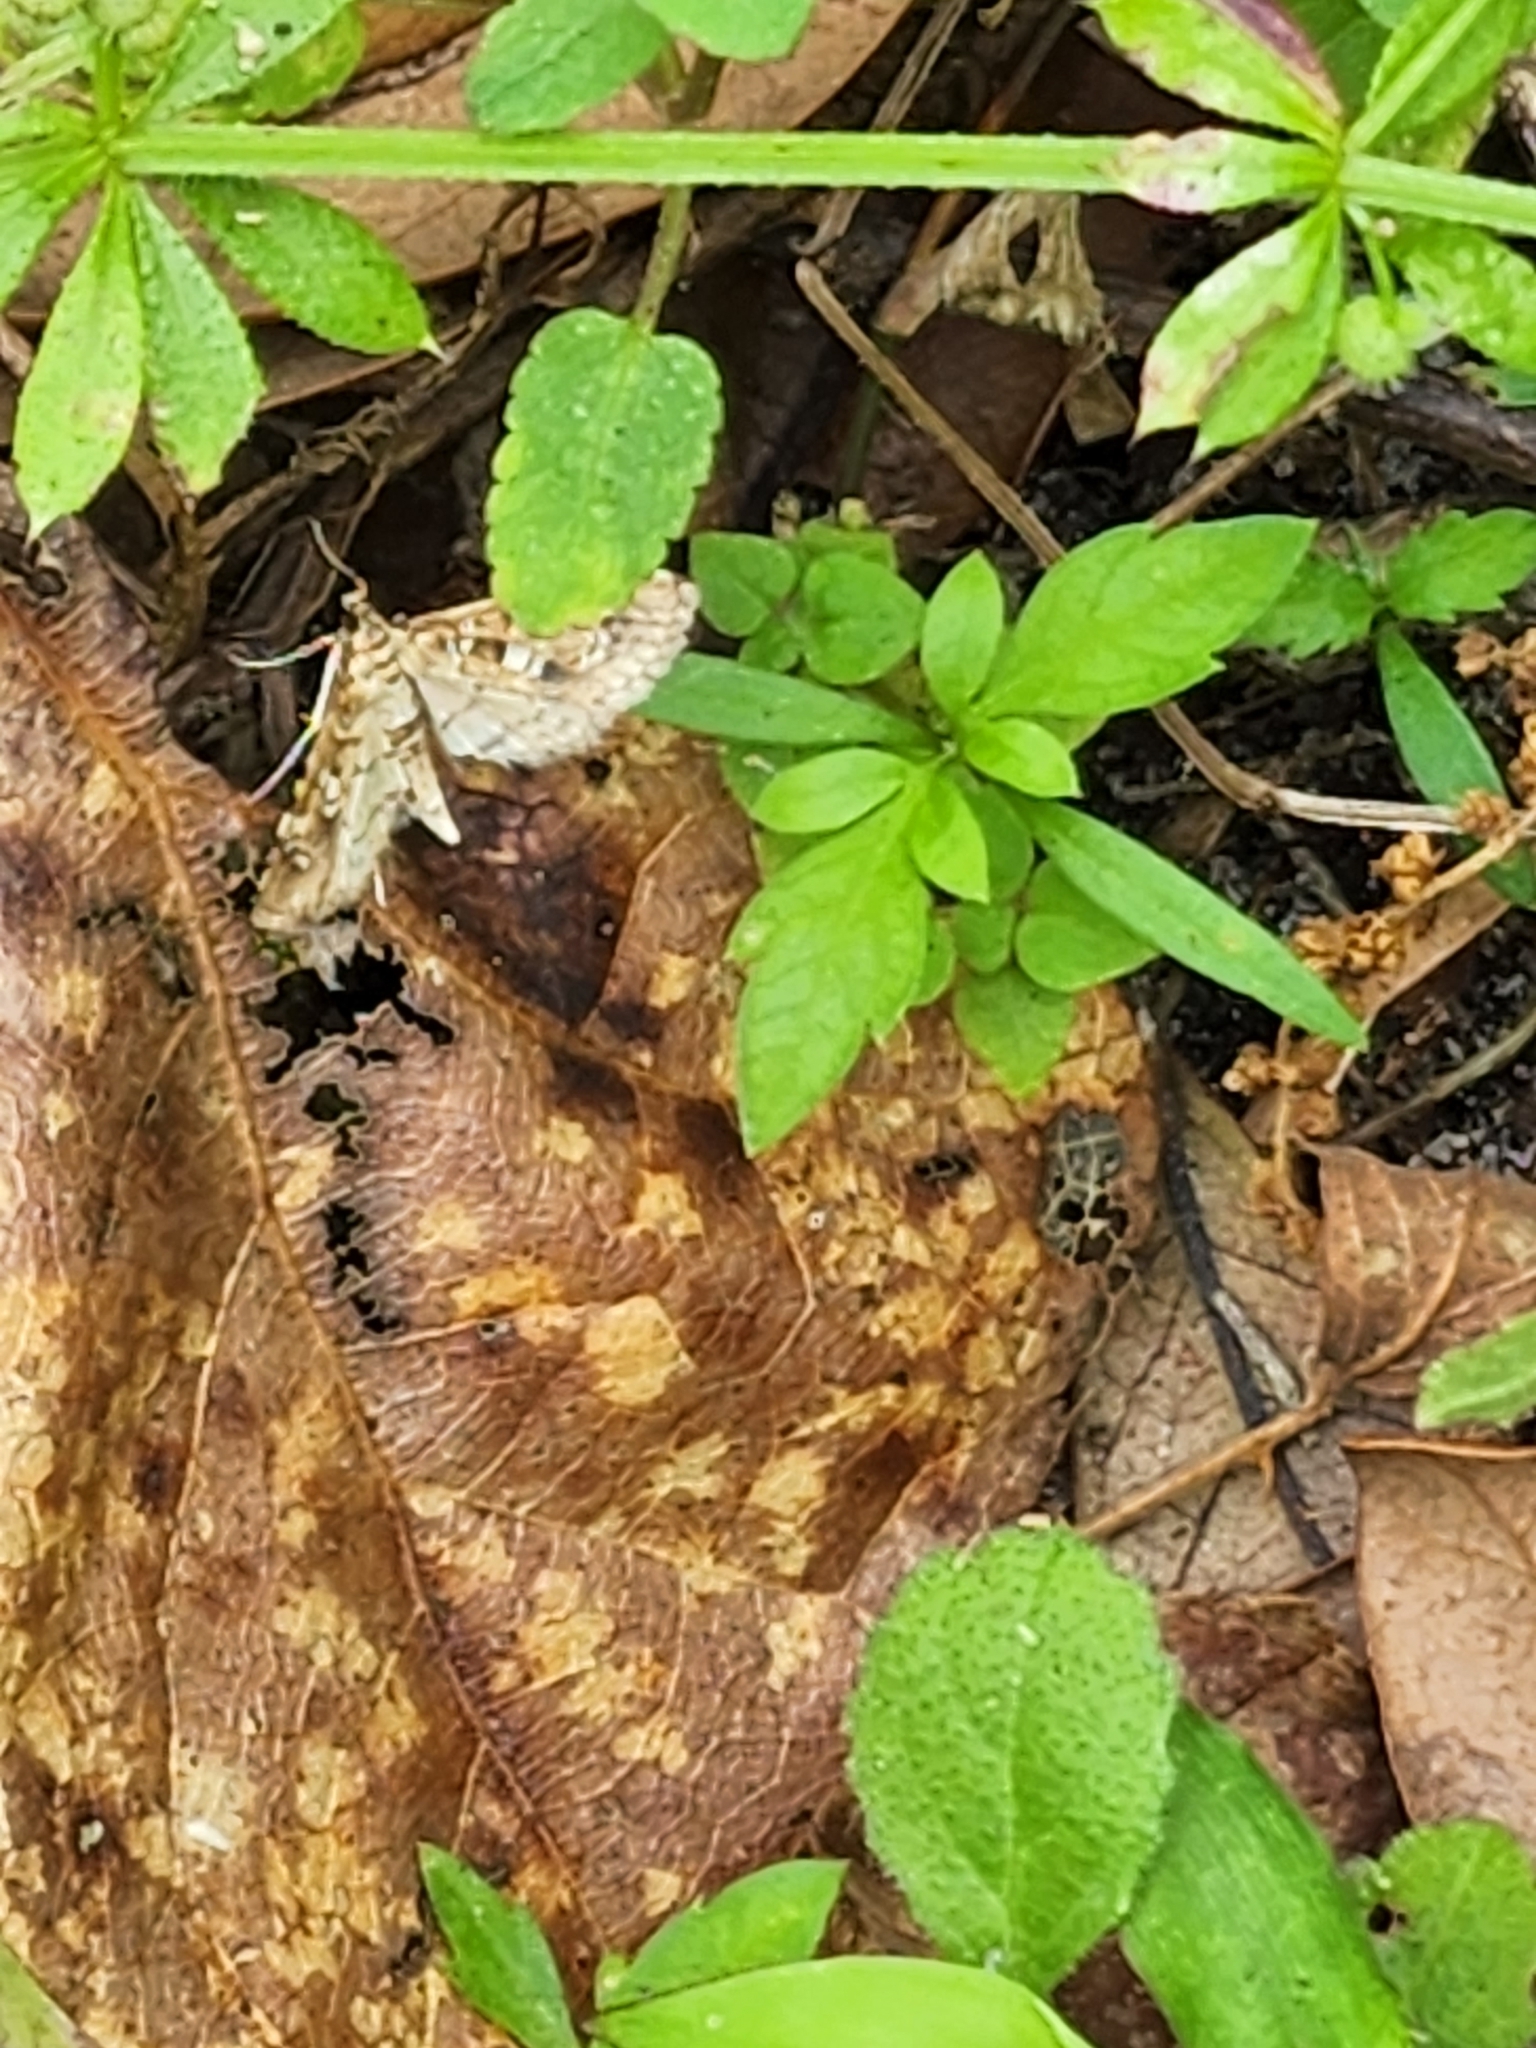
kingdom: Animalia
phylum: Arthropoda
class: Insecta
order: Lepidoptera
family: Crambidae
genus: Samea
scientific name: Samea multiplicalis
